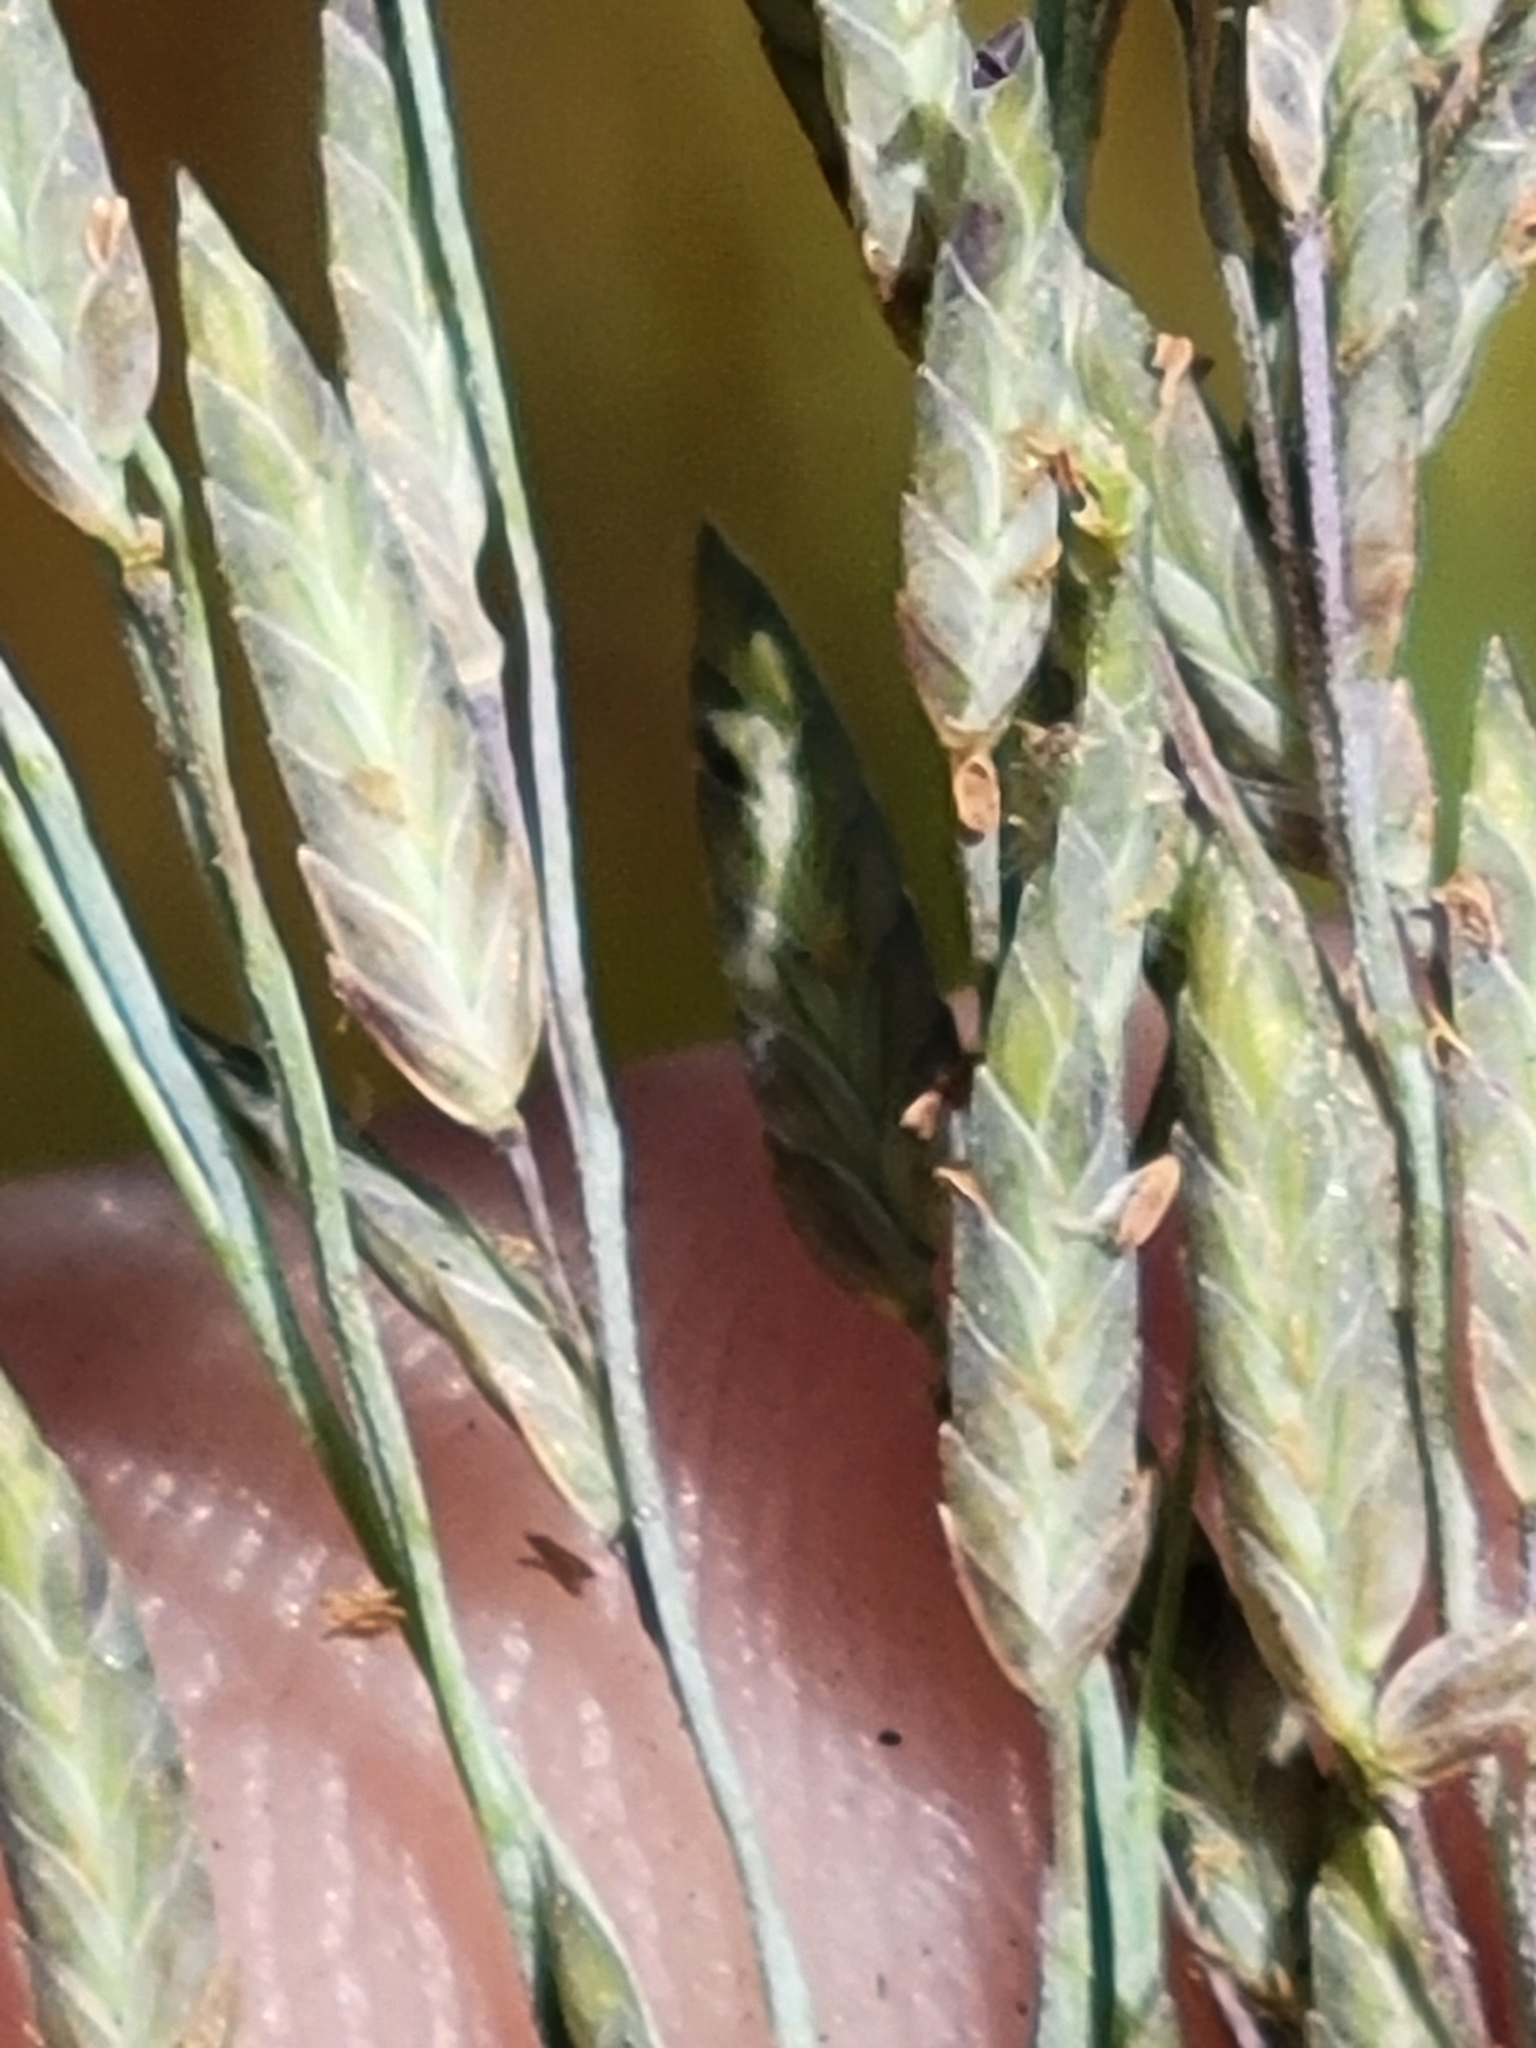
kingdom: Plantae
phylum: Tracheophyta
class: Liliopsida
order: Poales
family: Poaceae
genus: Eragrostis
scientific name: Eragrostis atrovirens
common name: Thalia lovegrass
